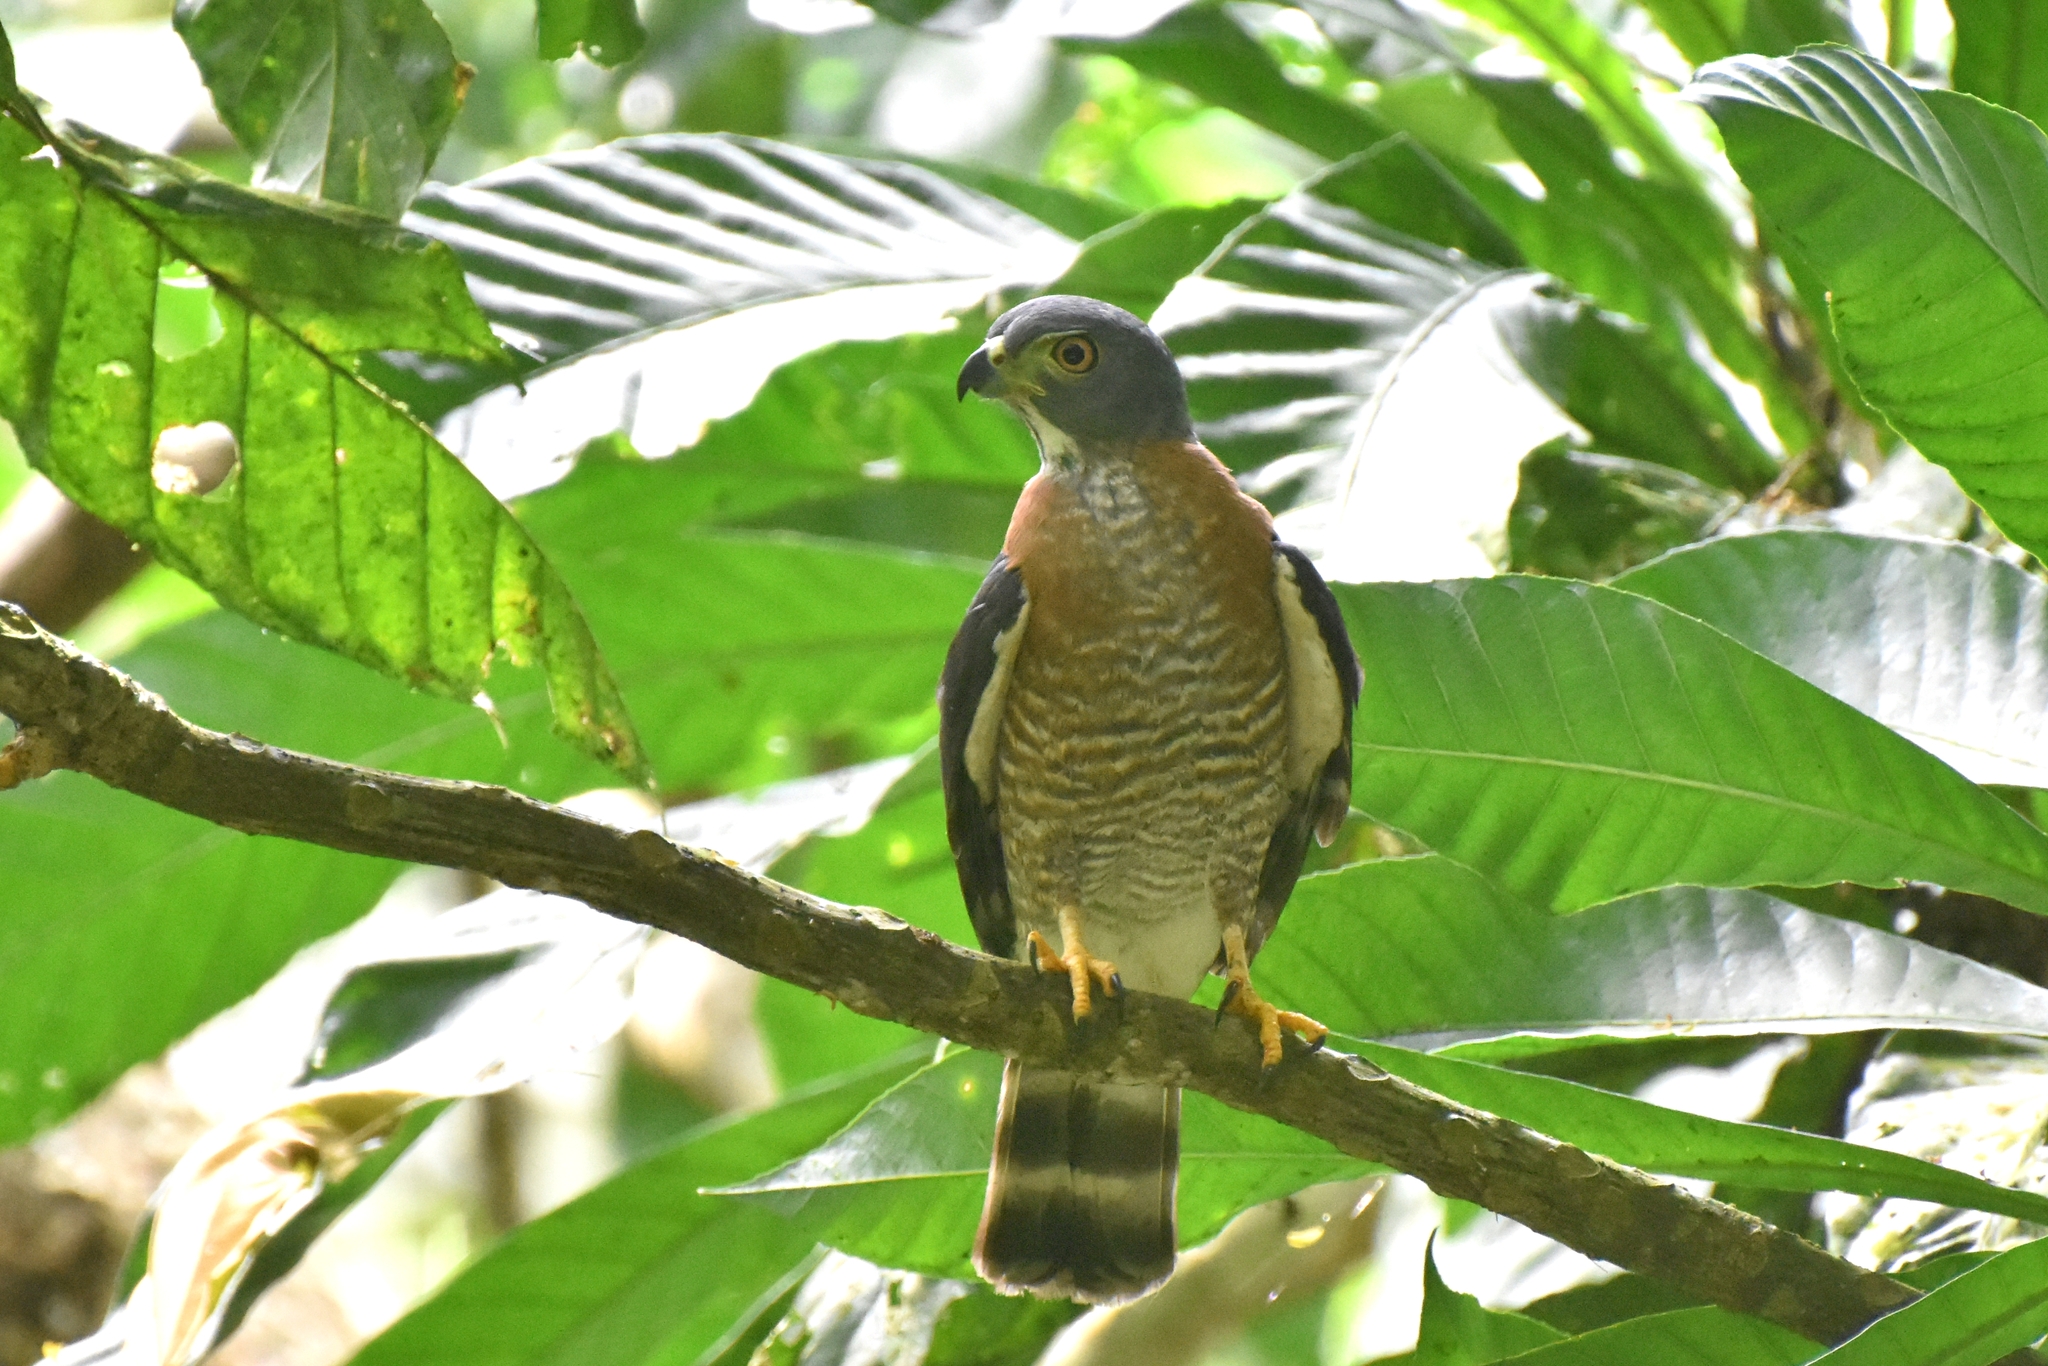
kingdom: Animalia
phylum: Chordata
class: Aves
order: Accipitriformes
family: Accipitridae
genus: Harpagus
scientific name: Harpagus bidentatus
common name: Double-toothed kite
